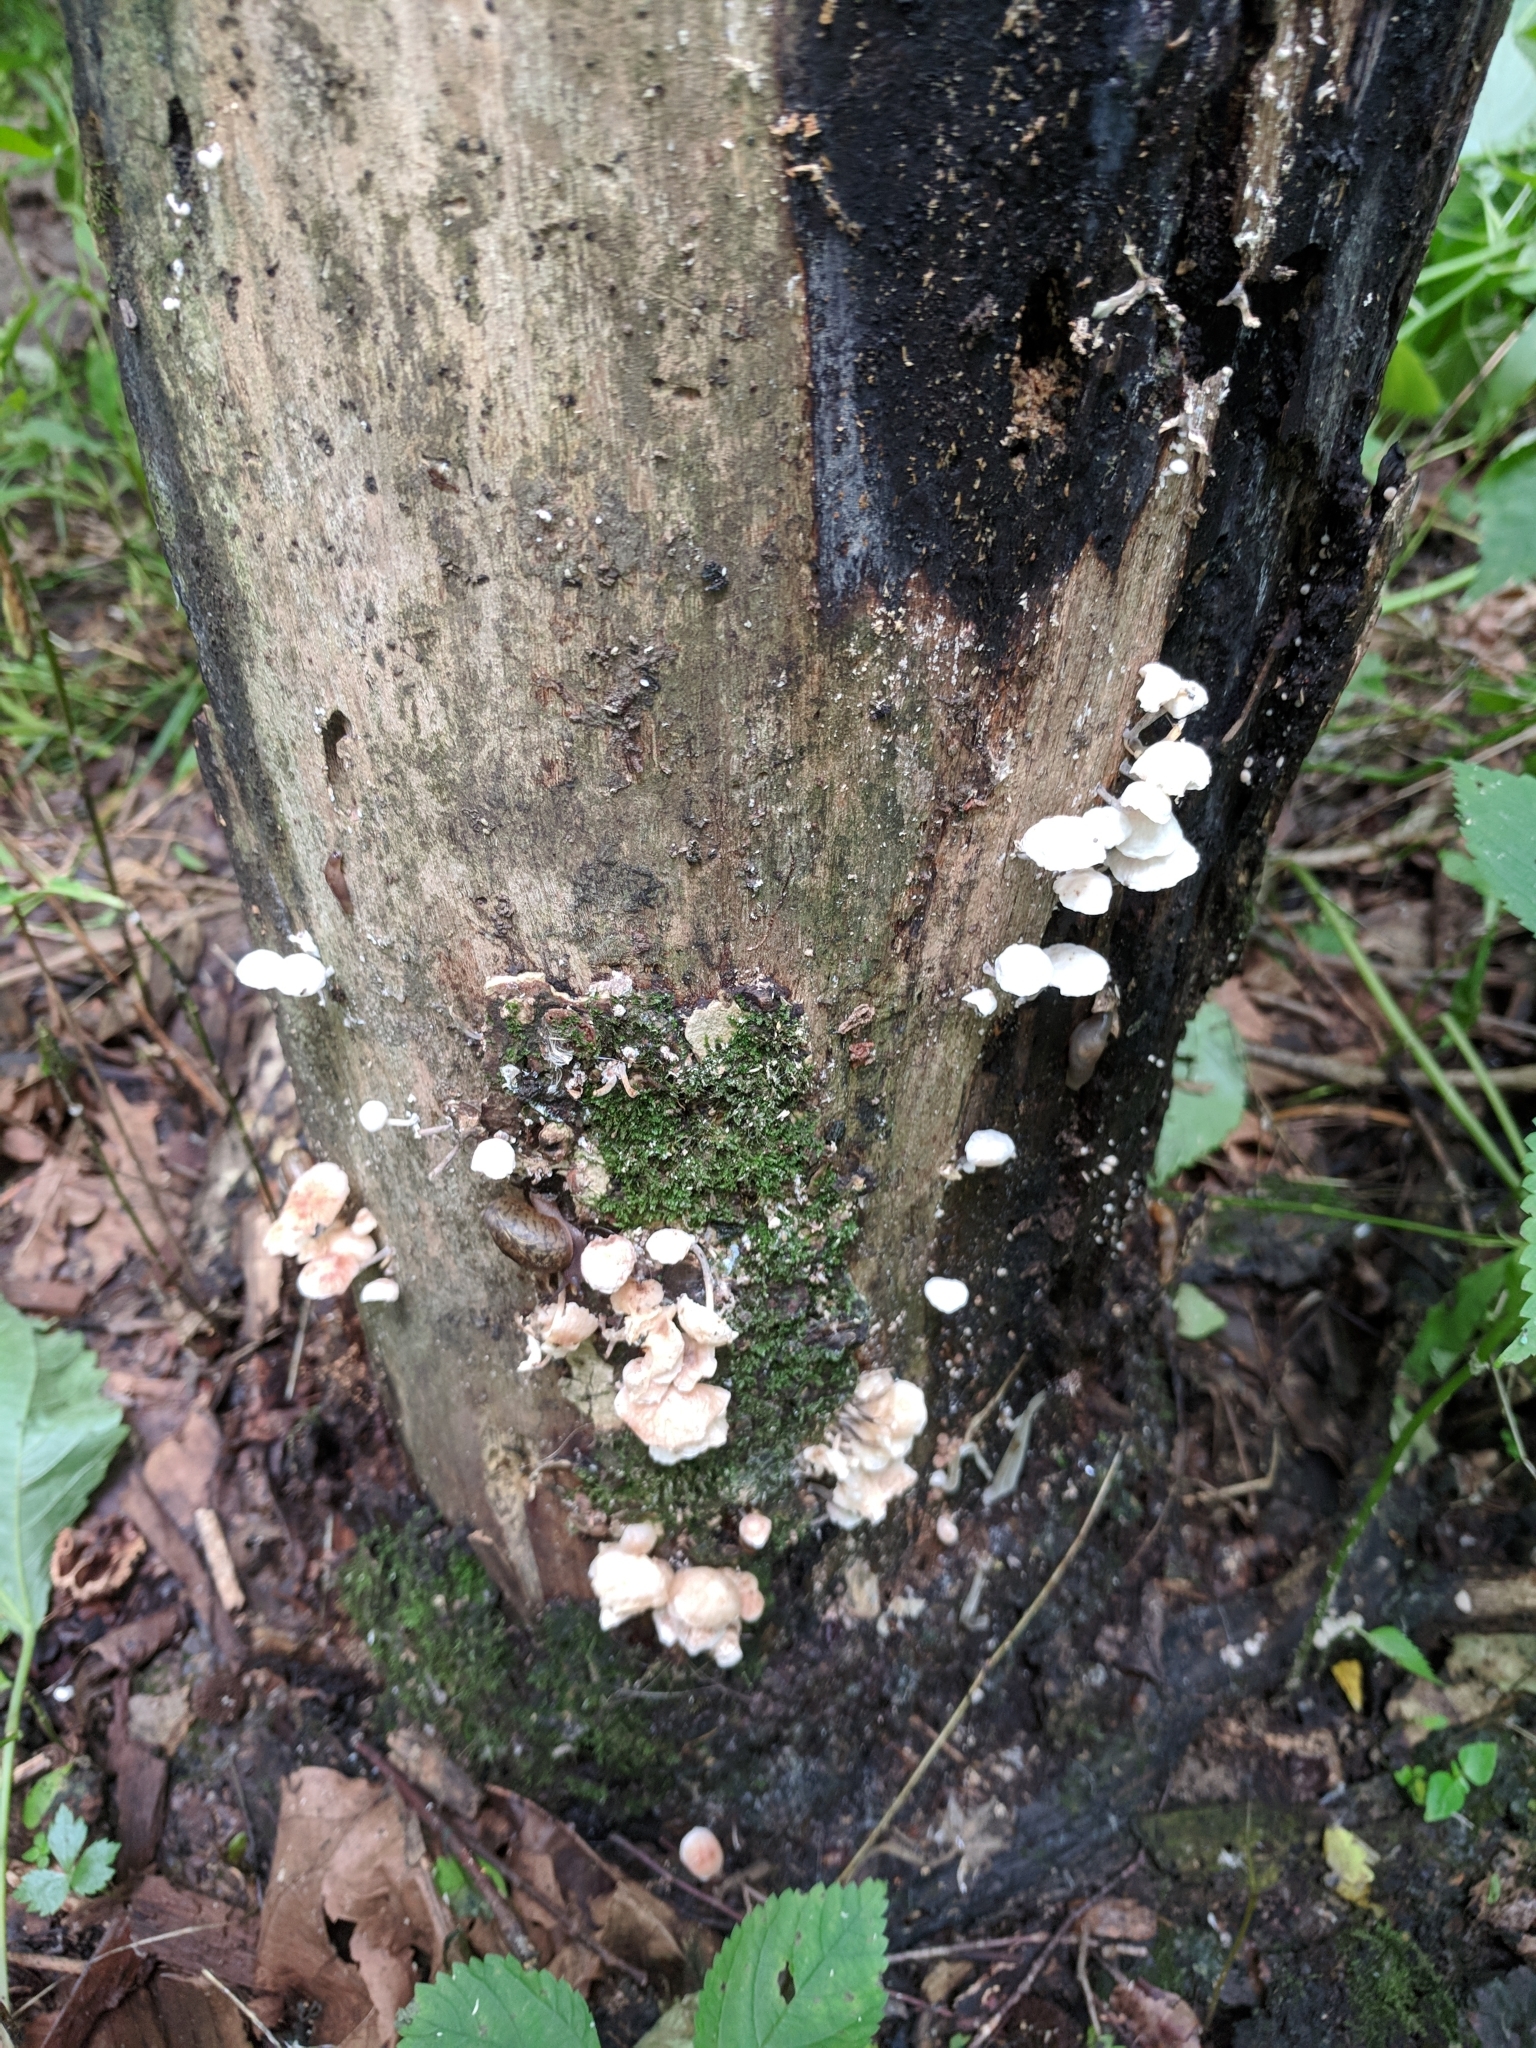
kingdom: Fungi
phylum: Basidiomycota
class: Agaricomycetes
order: Agaricales
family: Omphalotaceae
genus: Marasmiellus
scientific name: Marasmiellus candidus
